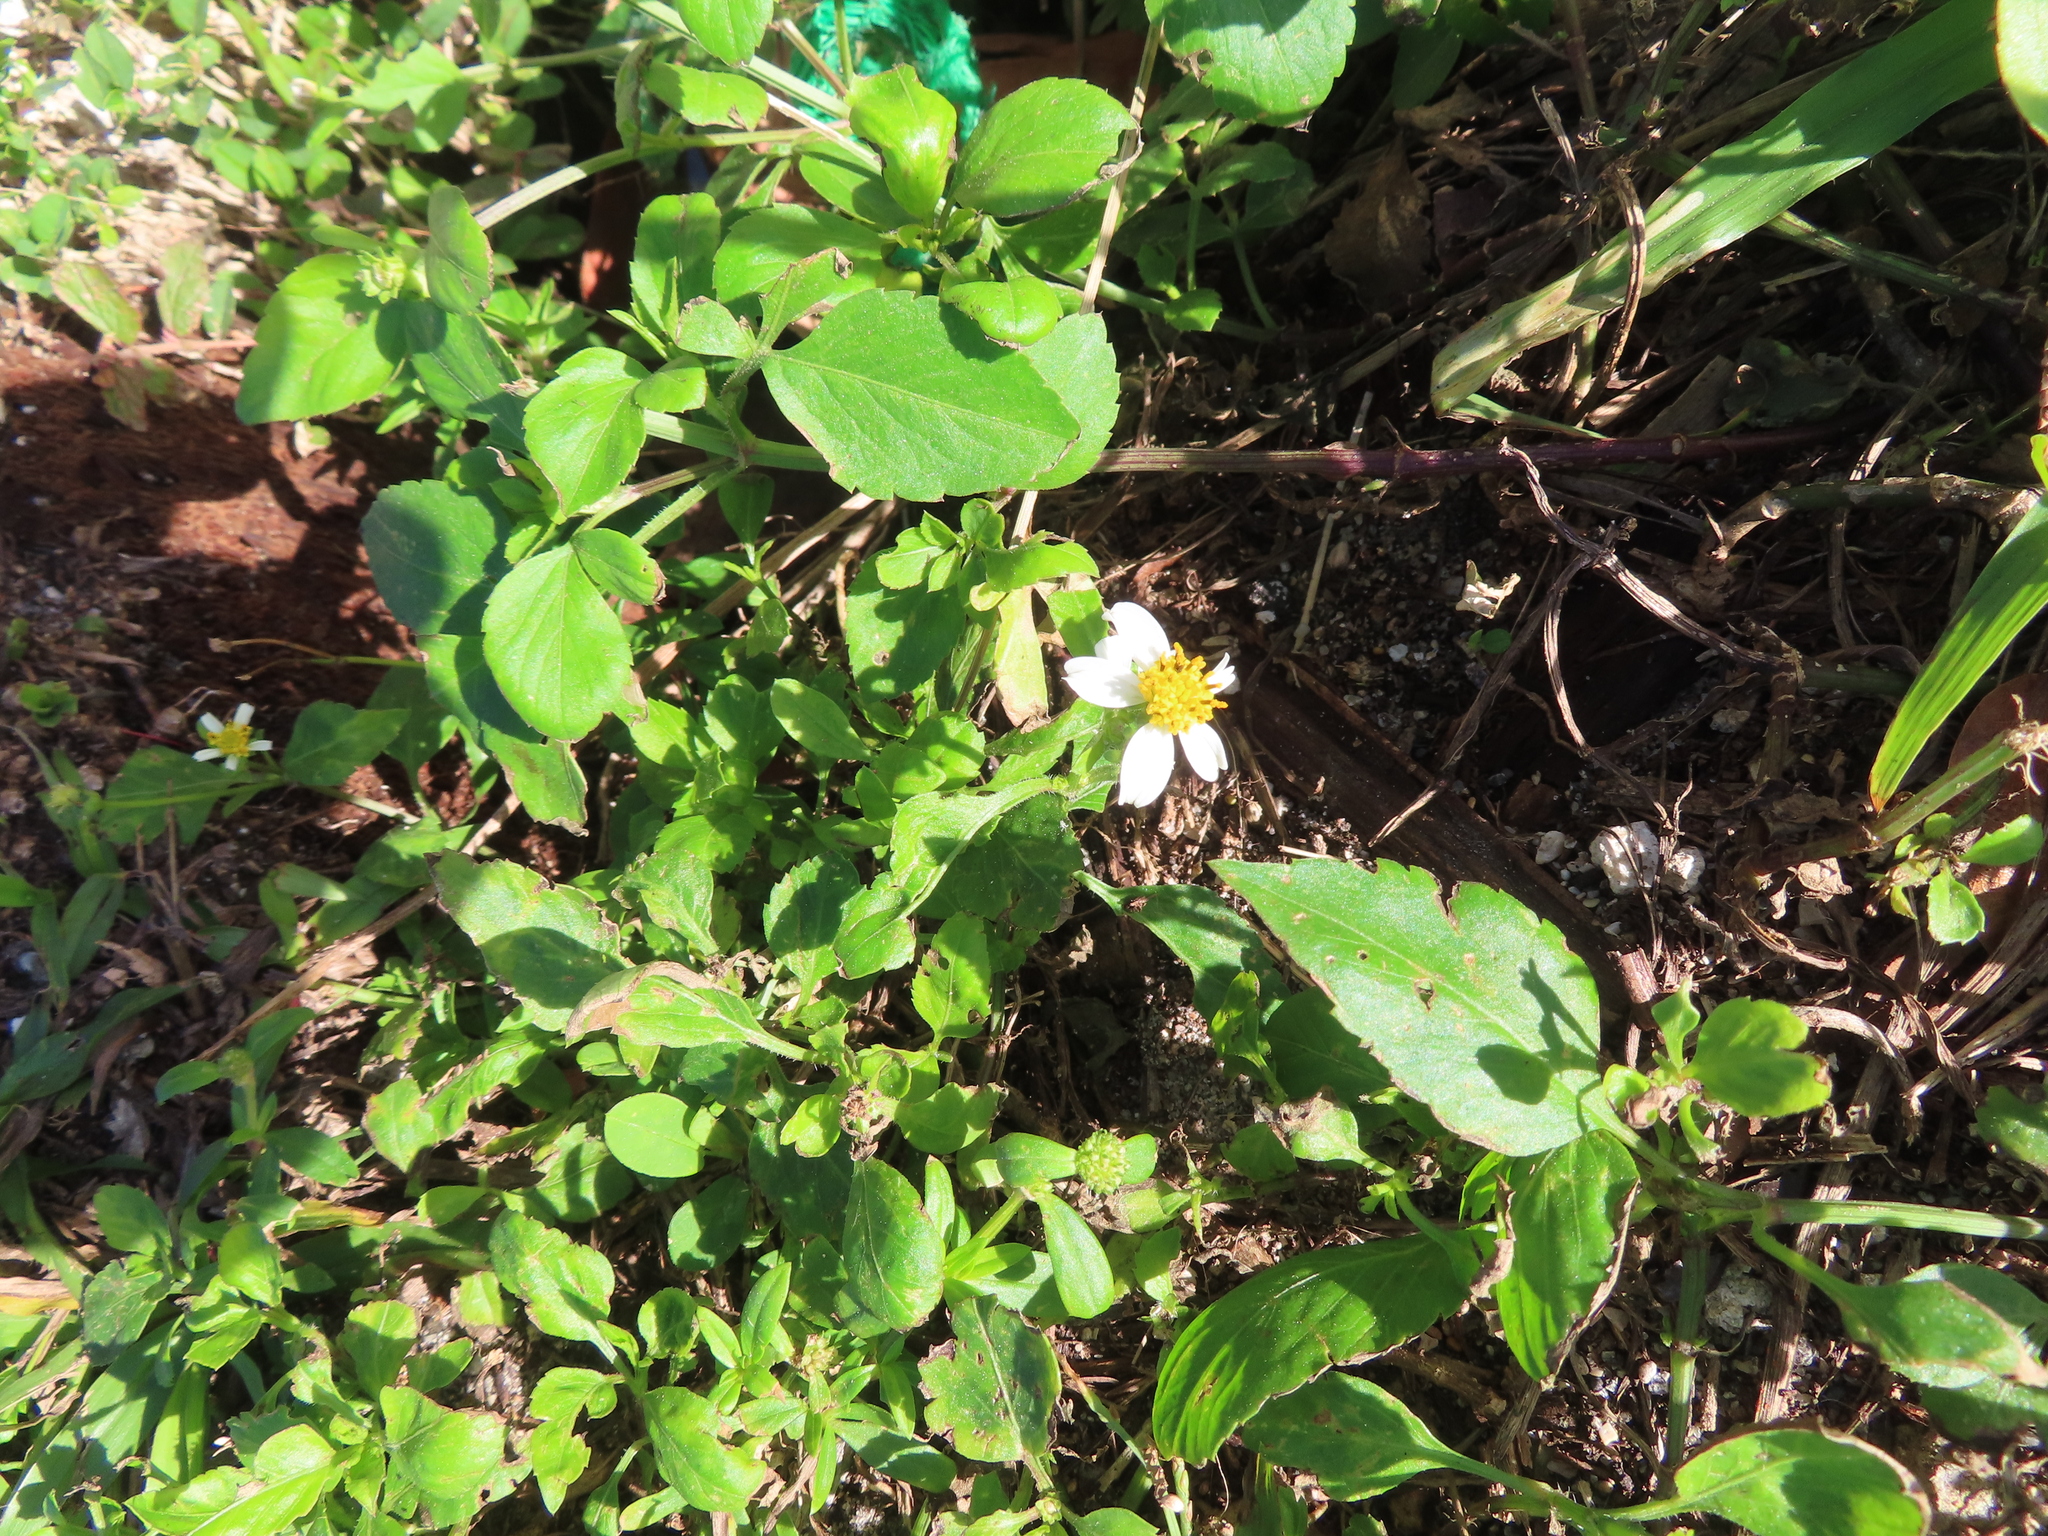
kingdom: Plantae
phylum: Tracheophyta
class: Magnoliopsida
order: Asterales
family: Asteraceae
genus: Bidens
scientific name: Bidens alba
